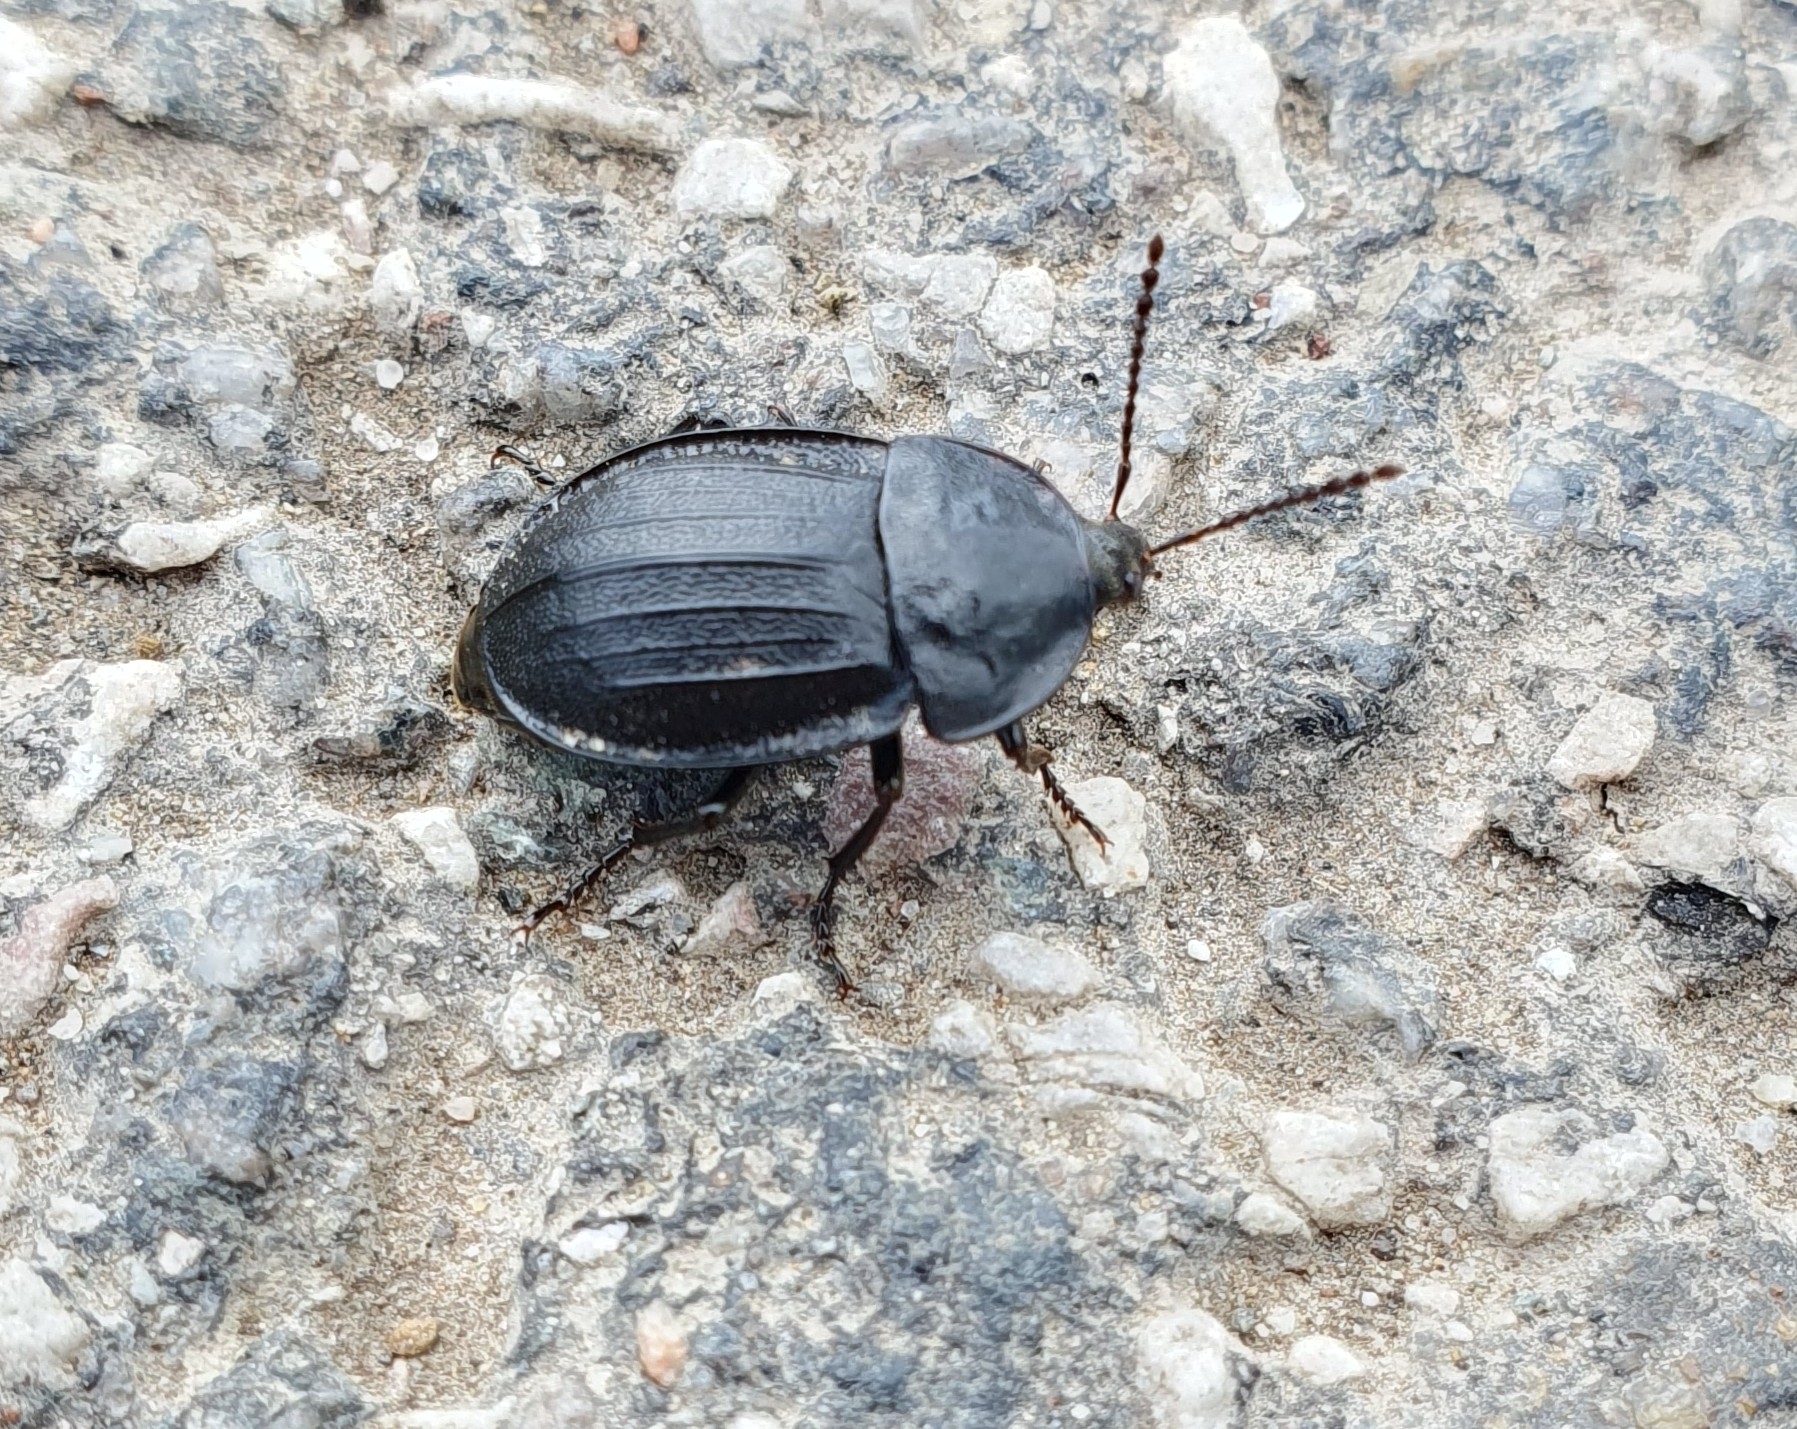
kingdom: Animalia
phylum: Arthropoda
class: Insecta
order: Coleoptera
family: Staphylinidae
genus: Silpha
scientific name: Silpha atrata
